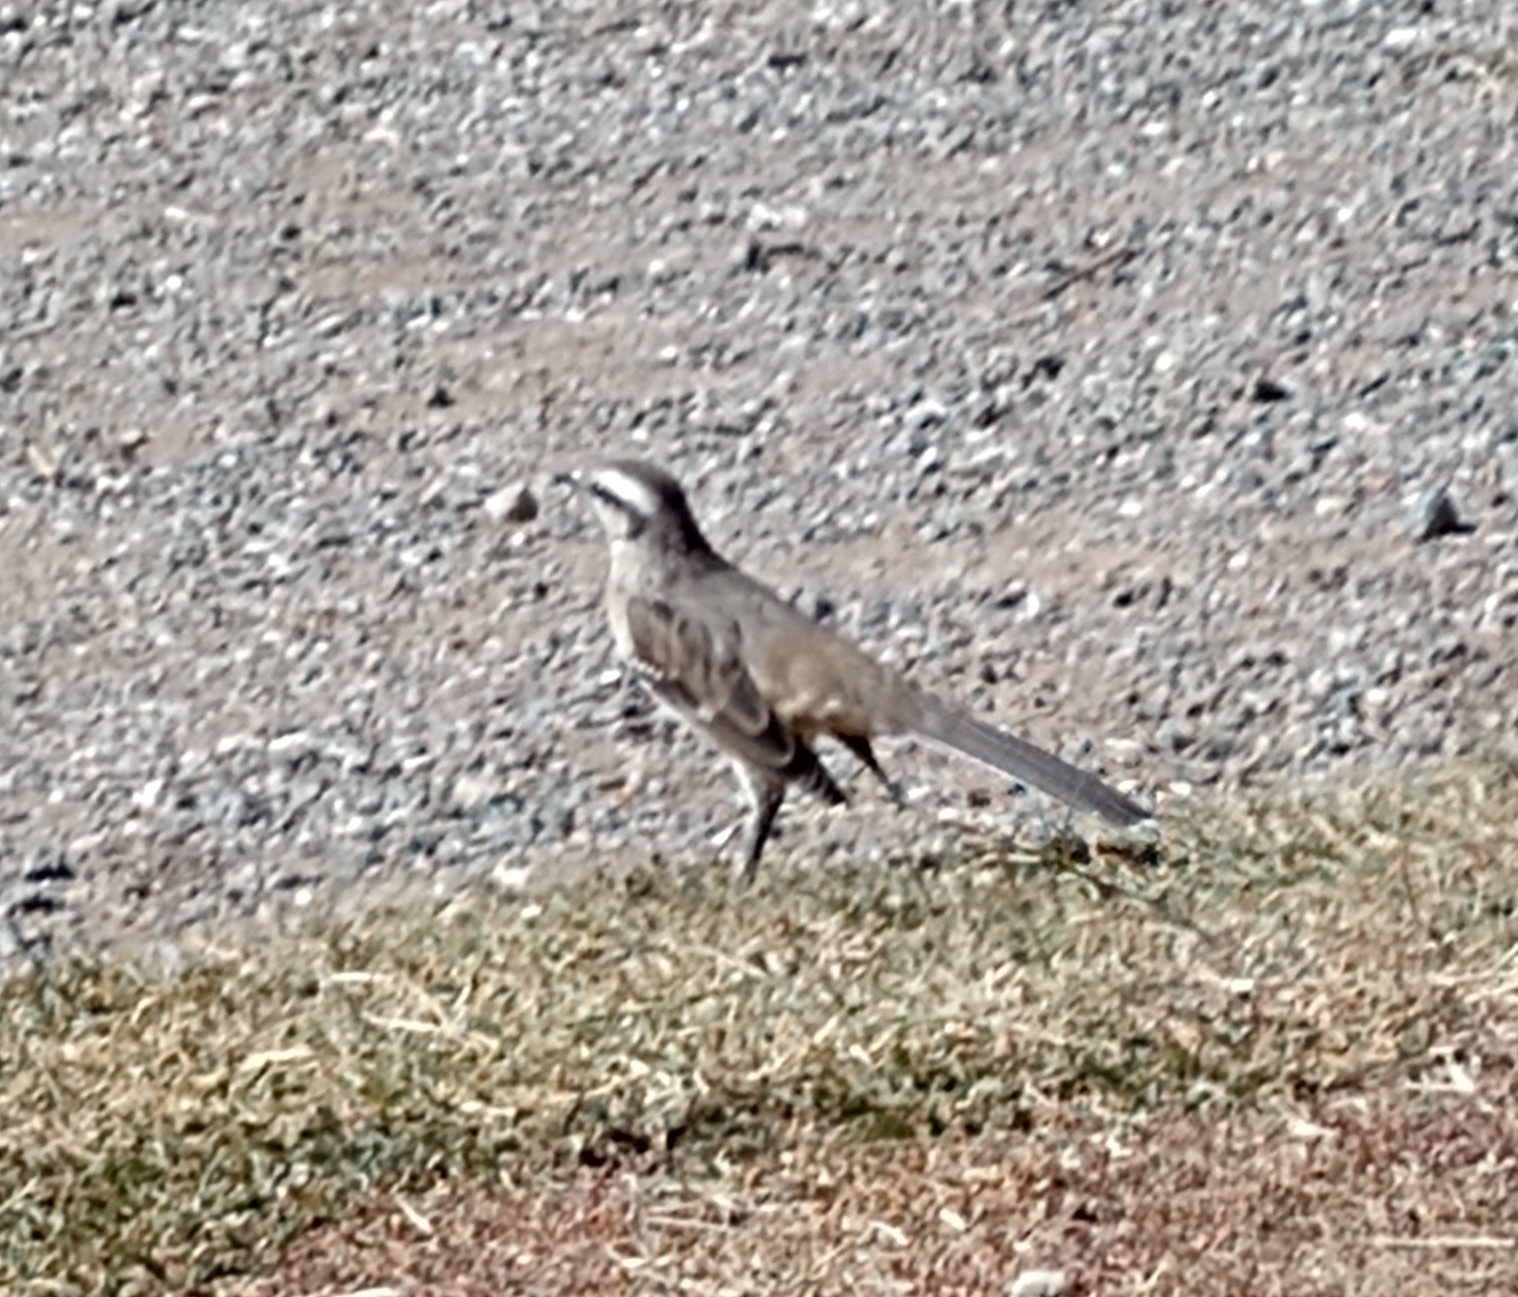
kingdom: Animalia
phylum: Chordata
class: Aves
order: Passeriformes
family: Mimidae
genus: Mimus
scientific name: Mimus saturninus
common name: Chalk-browed mockingbird
